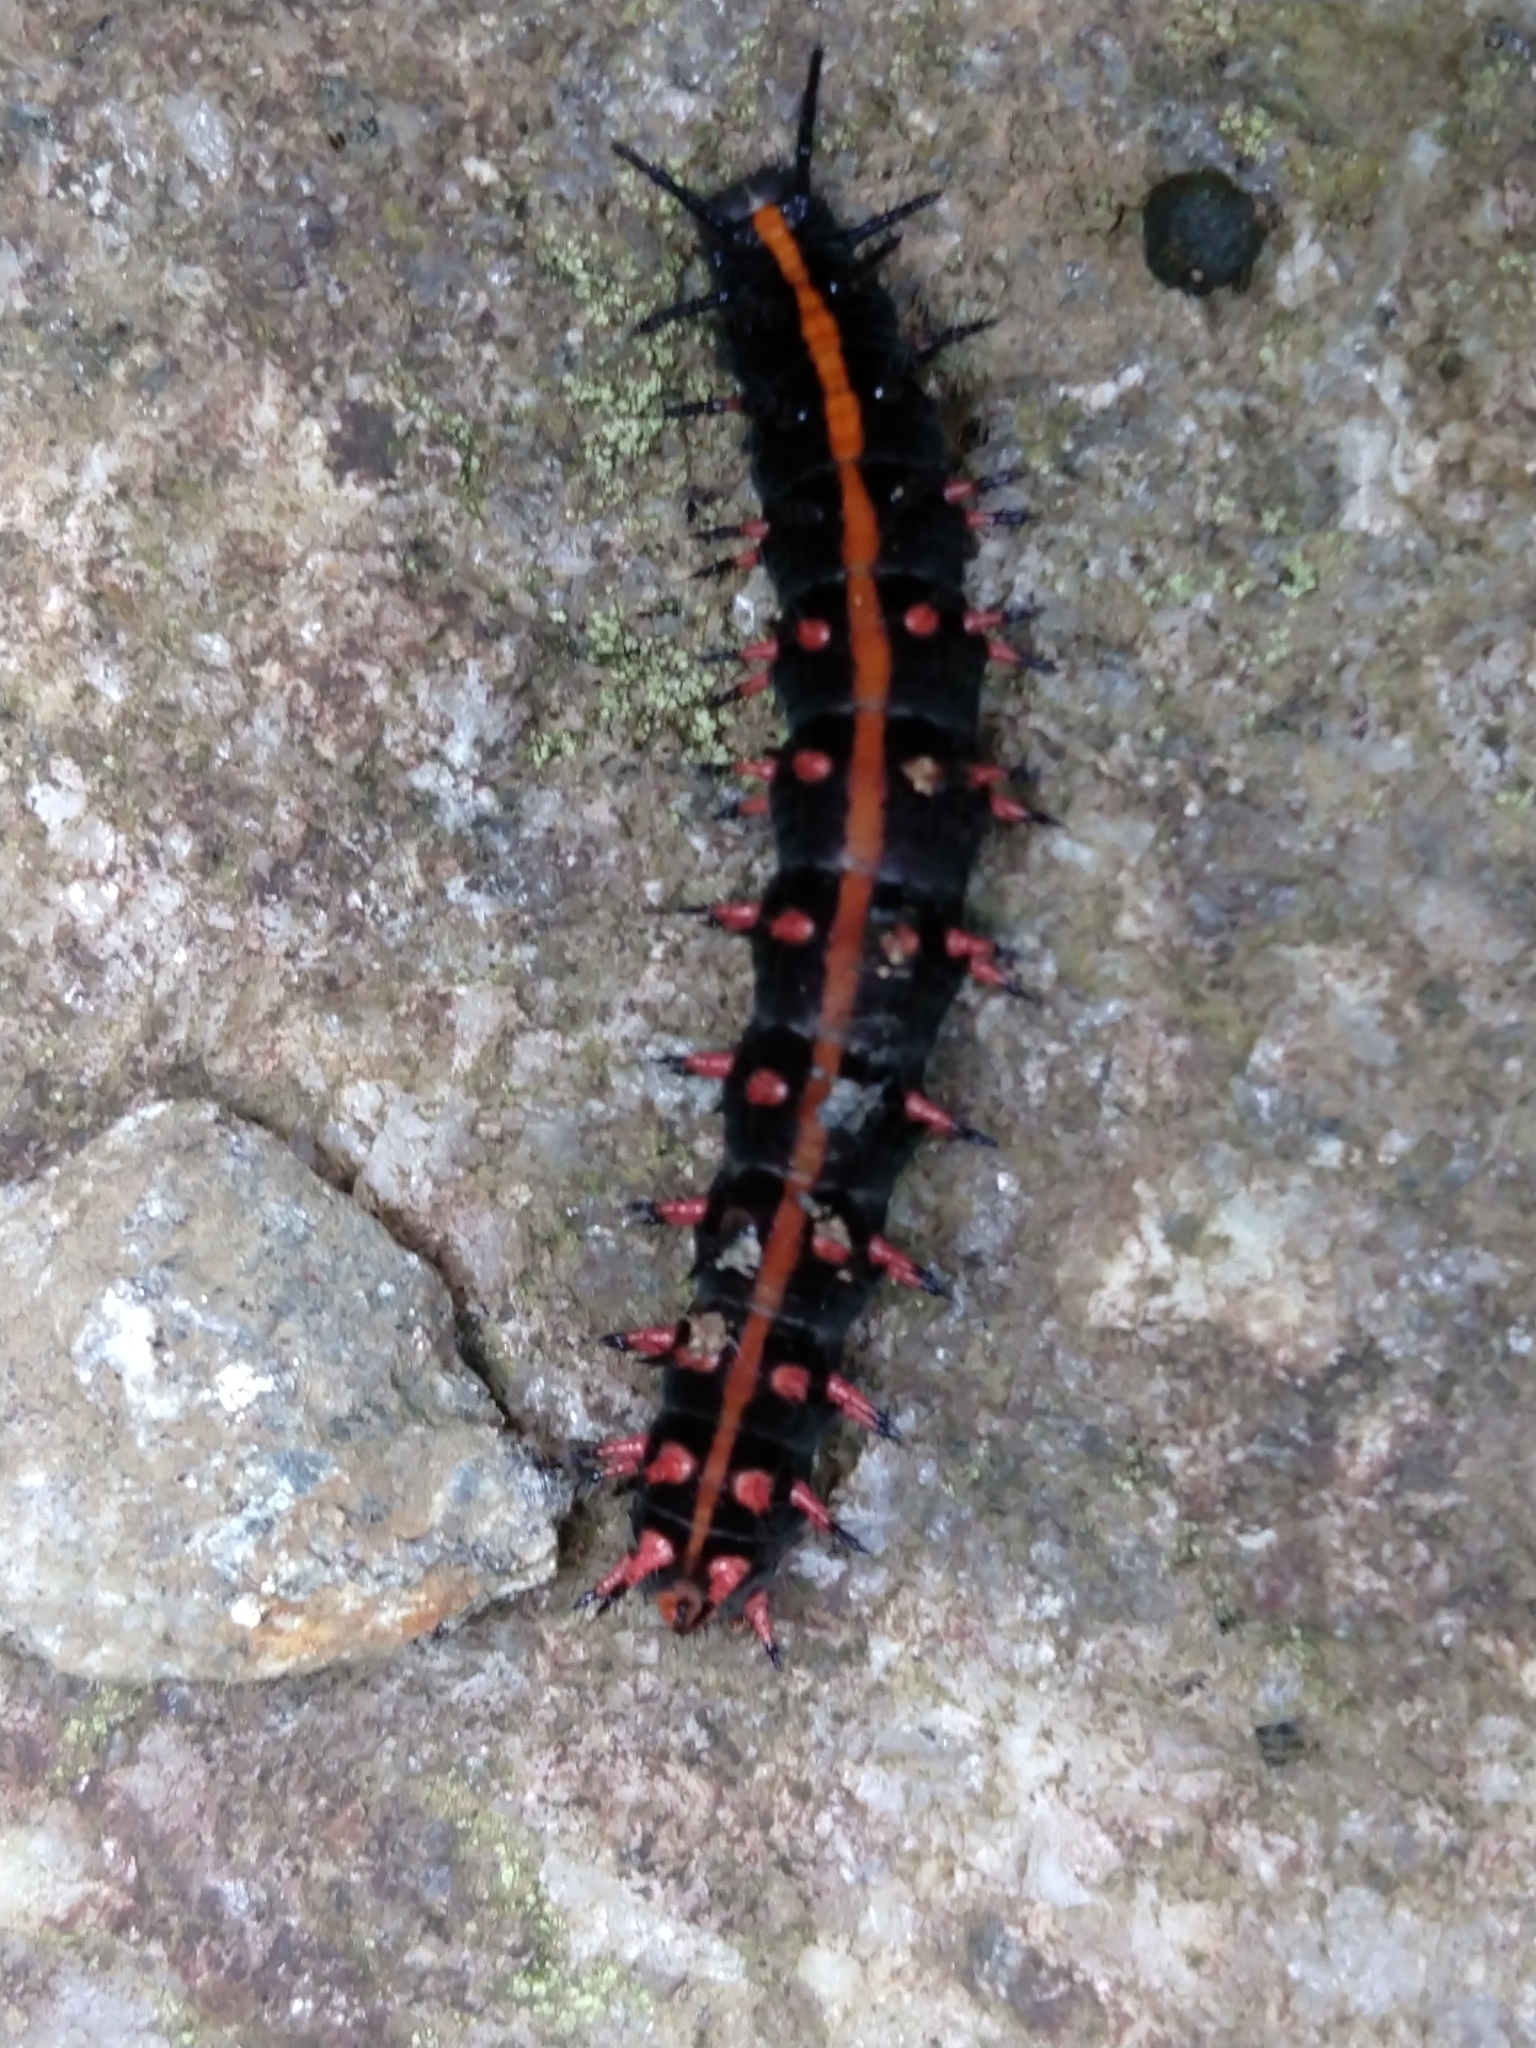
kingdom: Animalia
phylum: Arthropoda
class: Insecta
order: Lepidoptera
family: Nymphalidae
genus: Argynnis
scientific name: Argynnis hyperbius
